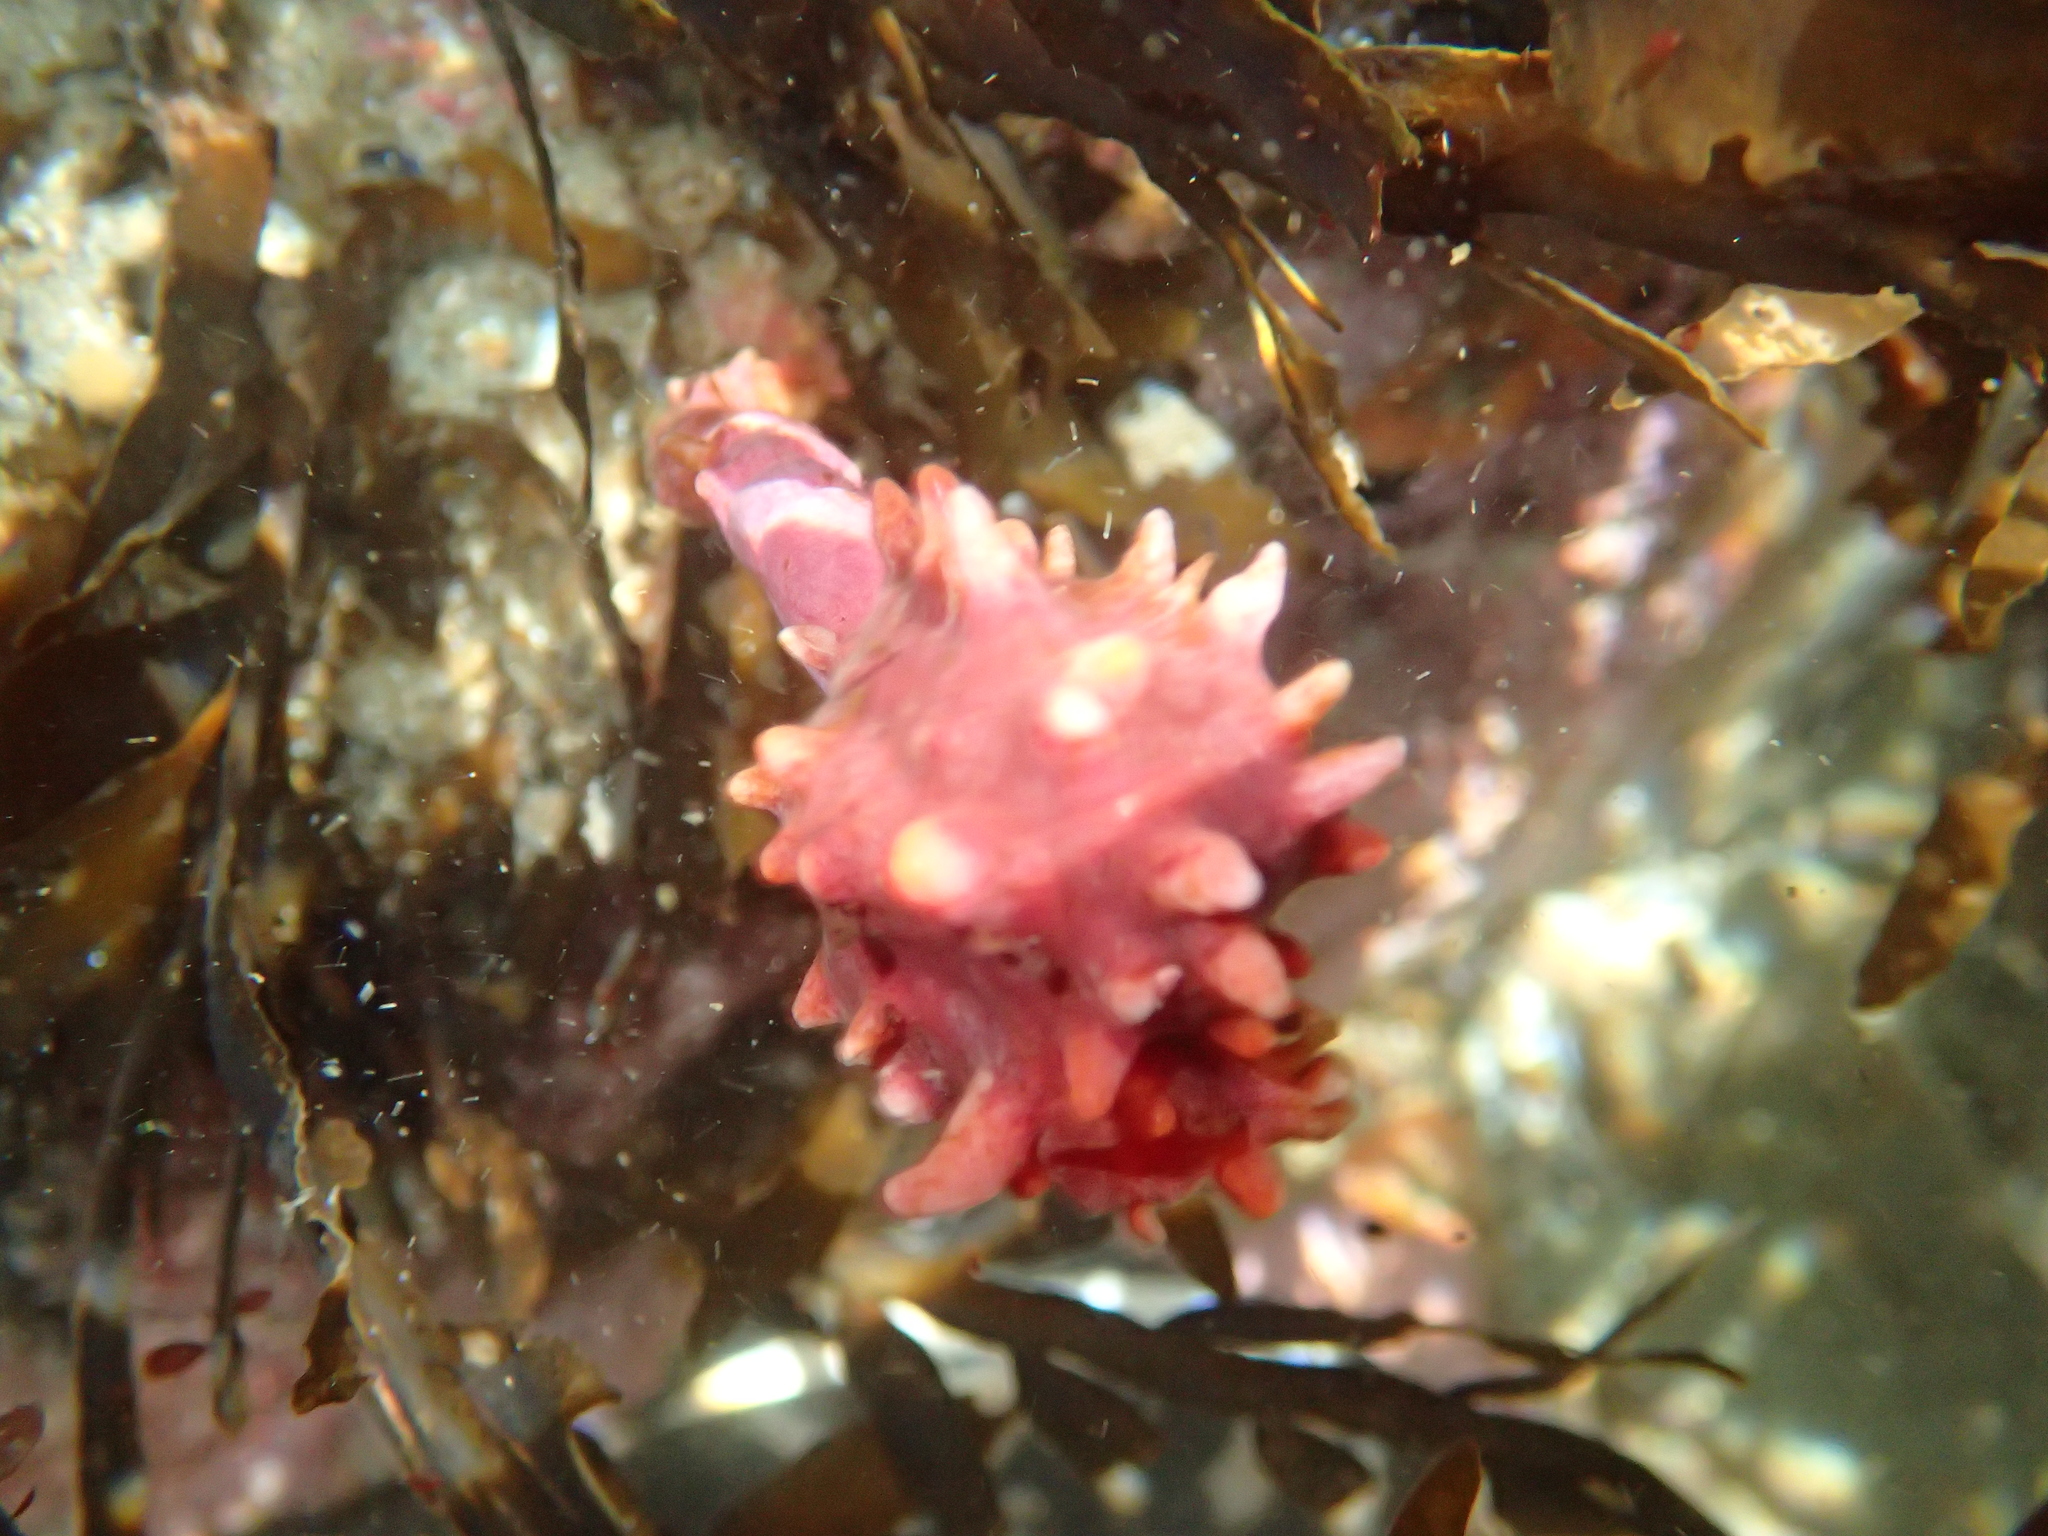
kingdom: Animalia
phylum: Chordata
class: Ascidiacea
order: Stolidobranchia
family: Pyuridae
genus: Pyura
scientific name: Pyura pachydermatina
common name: Sea tulip
